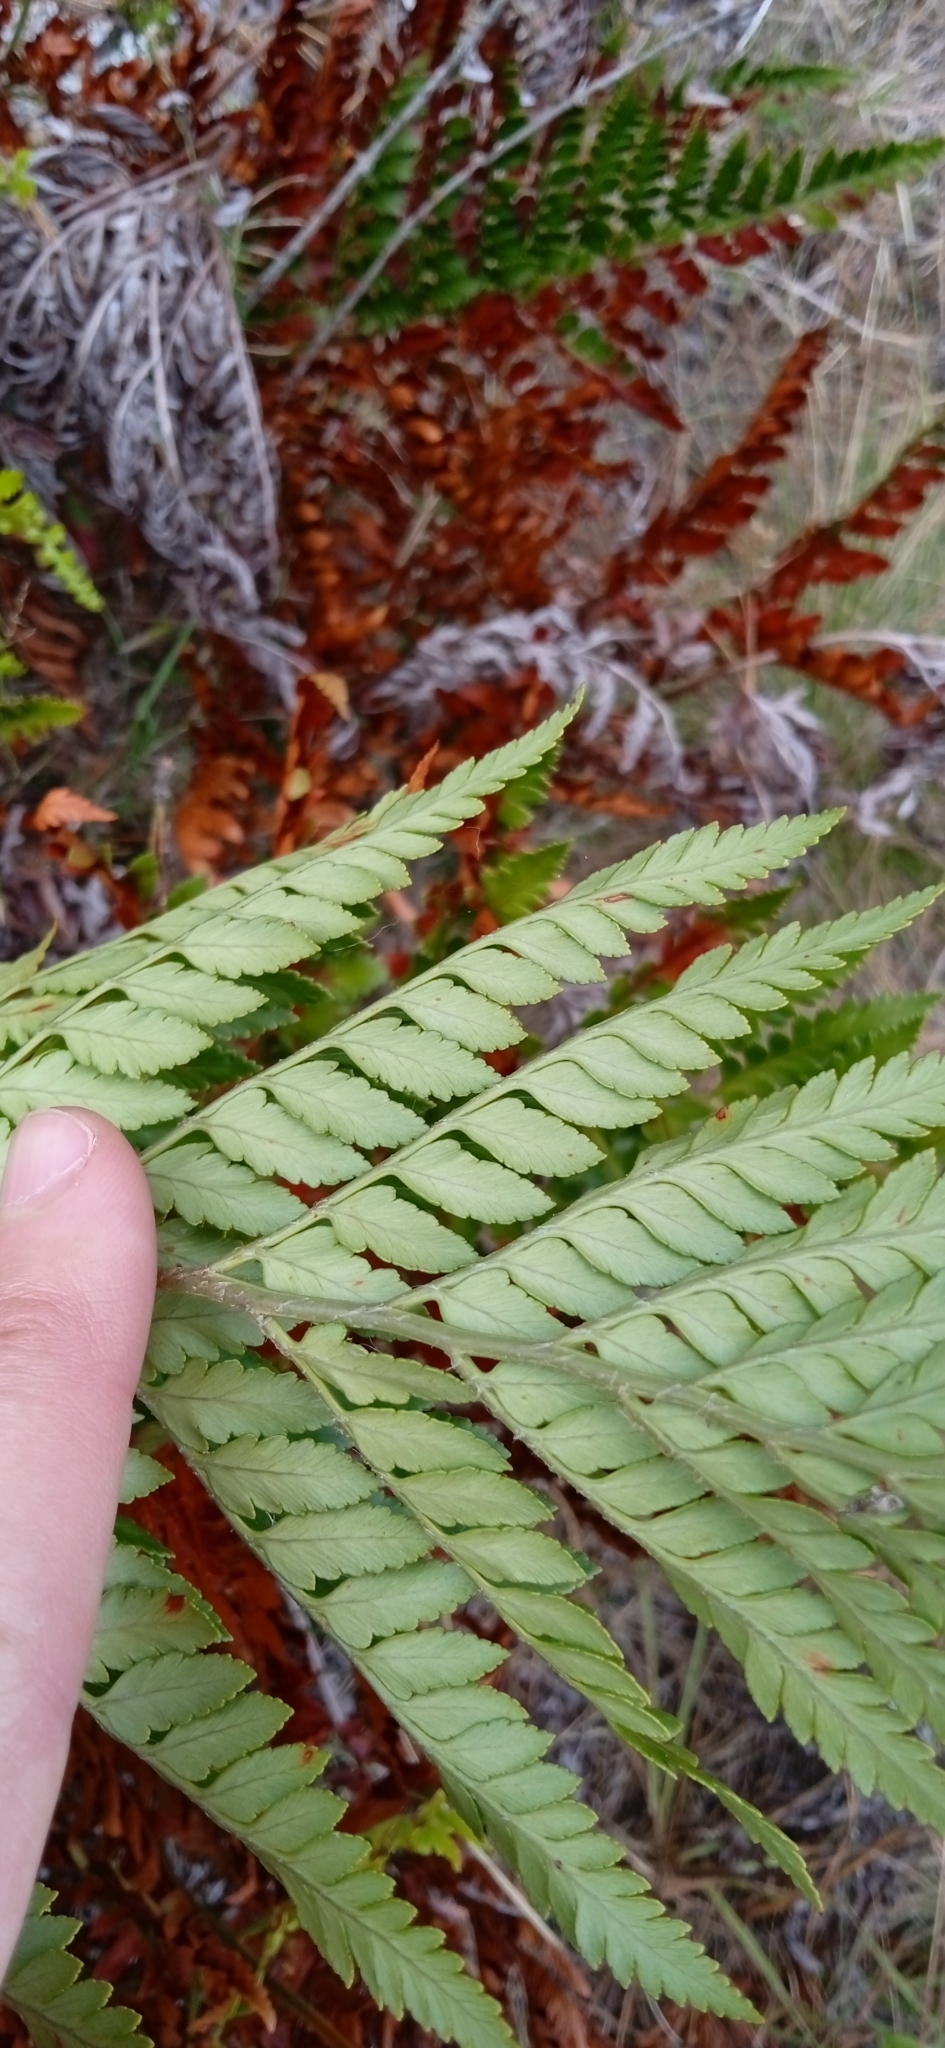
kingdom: Plantae
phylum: Tracheophyta
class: Polypodiopsida
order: Polypodiales
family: Dryopteridaceae
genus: Rumohra
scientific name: Rumohra adiantiformis
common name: Leather fern
